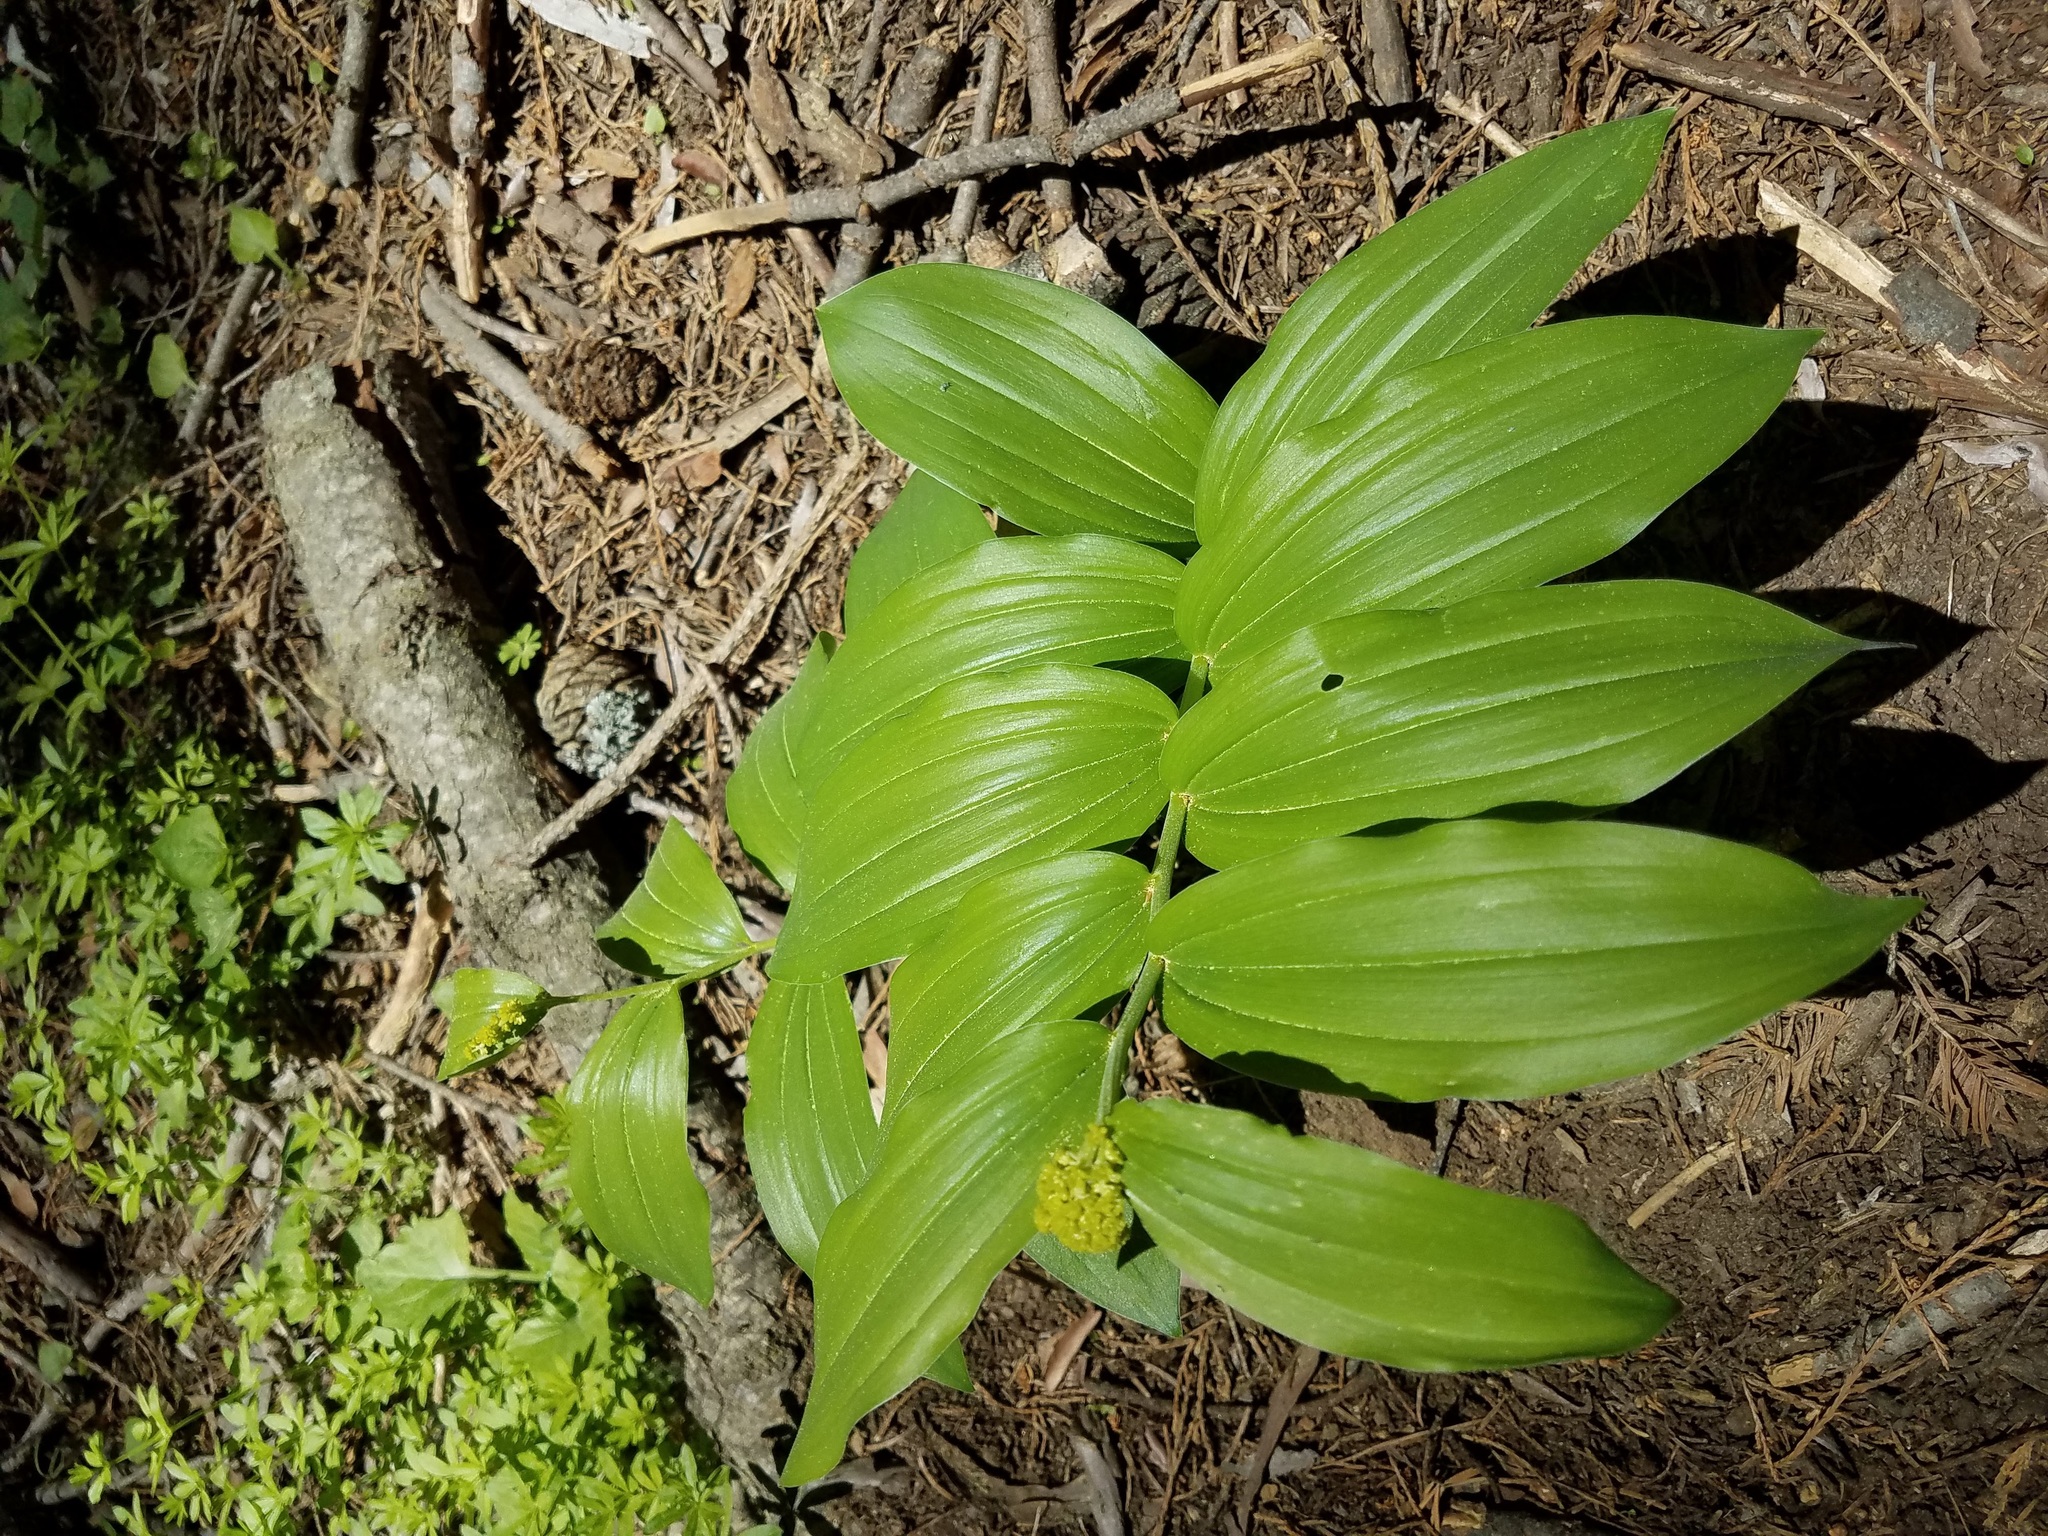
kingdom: Plantae
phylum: Tracheophyta
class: Liliopsida
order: Asparagales
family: Asparagaceae
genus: Maianthemum
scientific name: Maianthemum racemosum
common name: False spikenard
